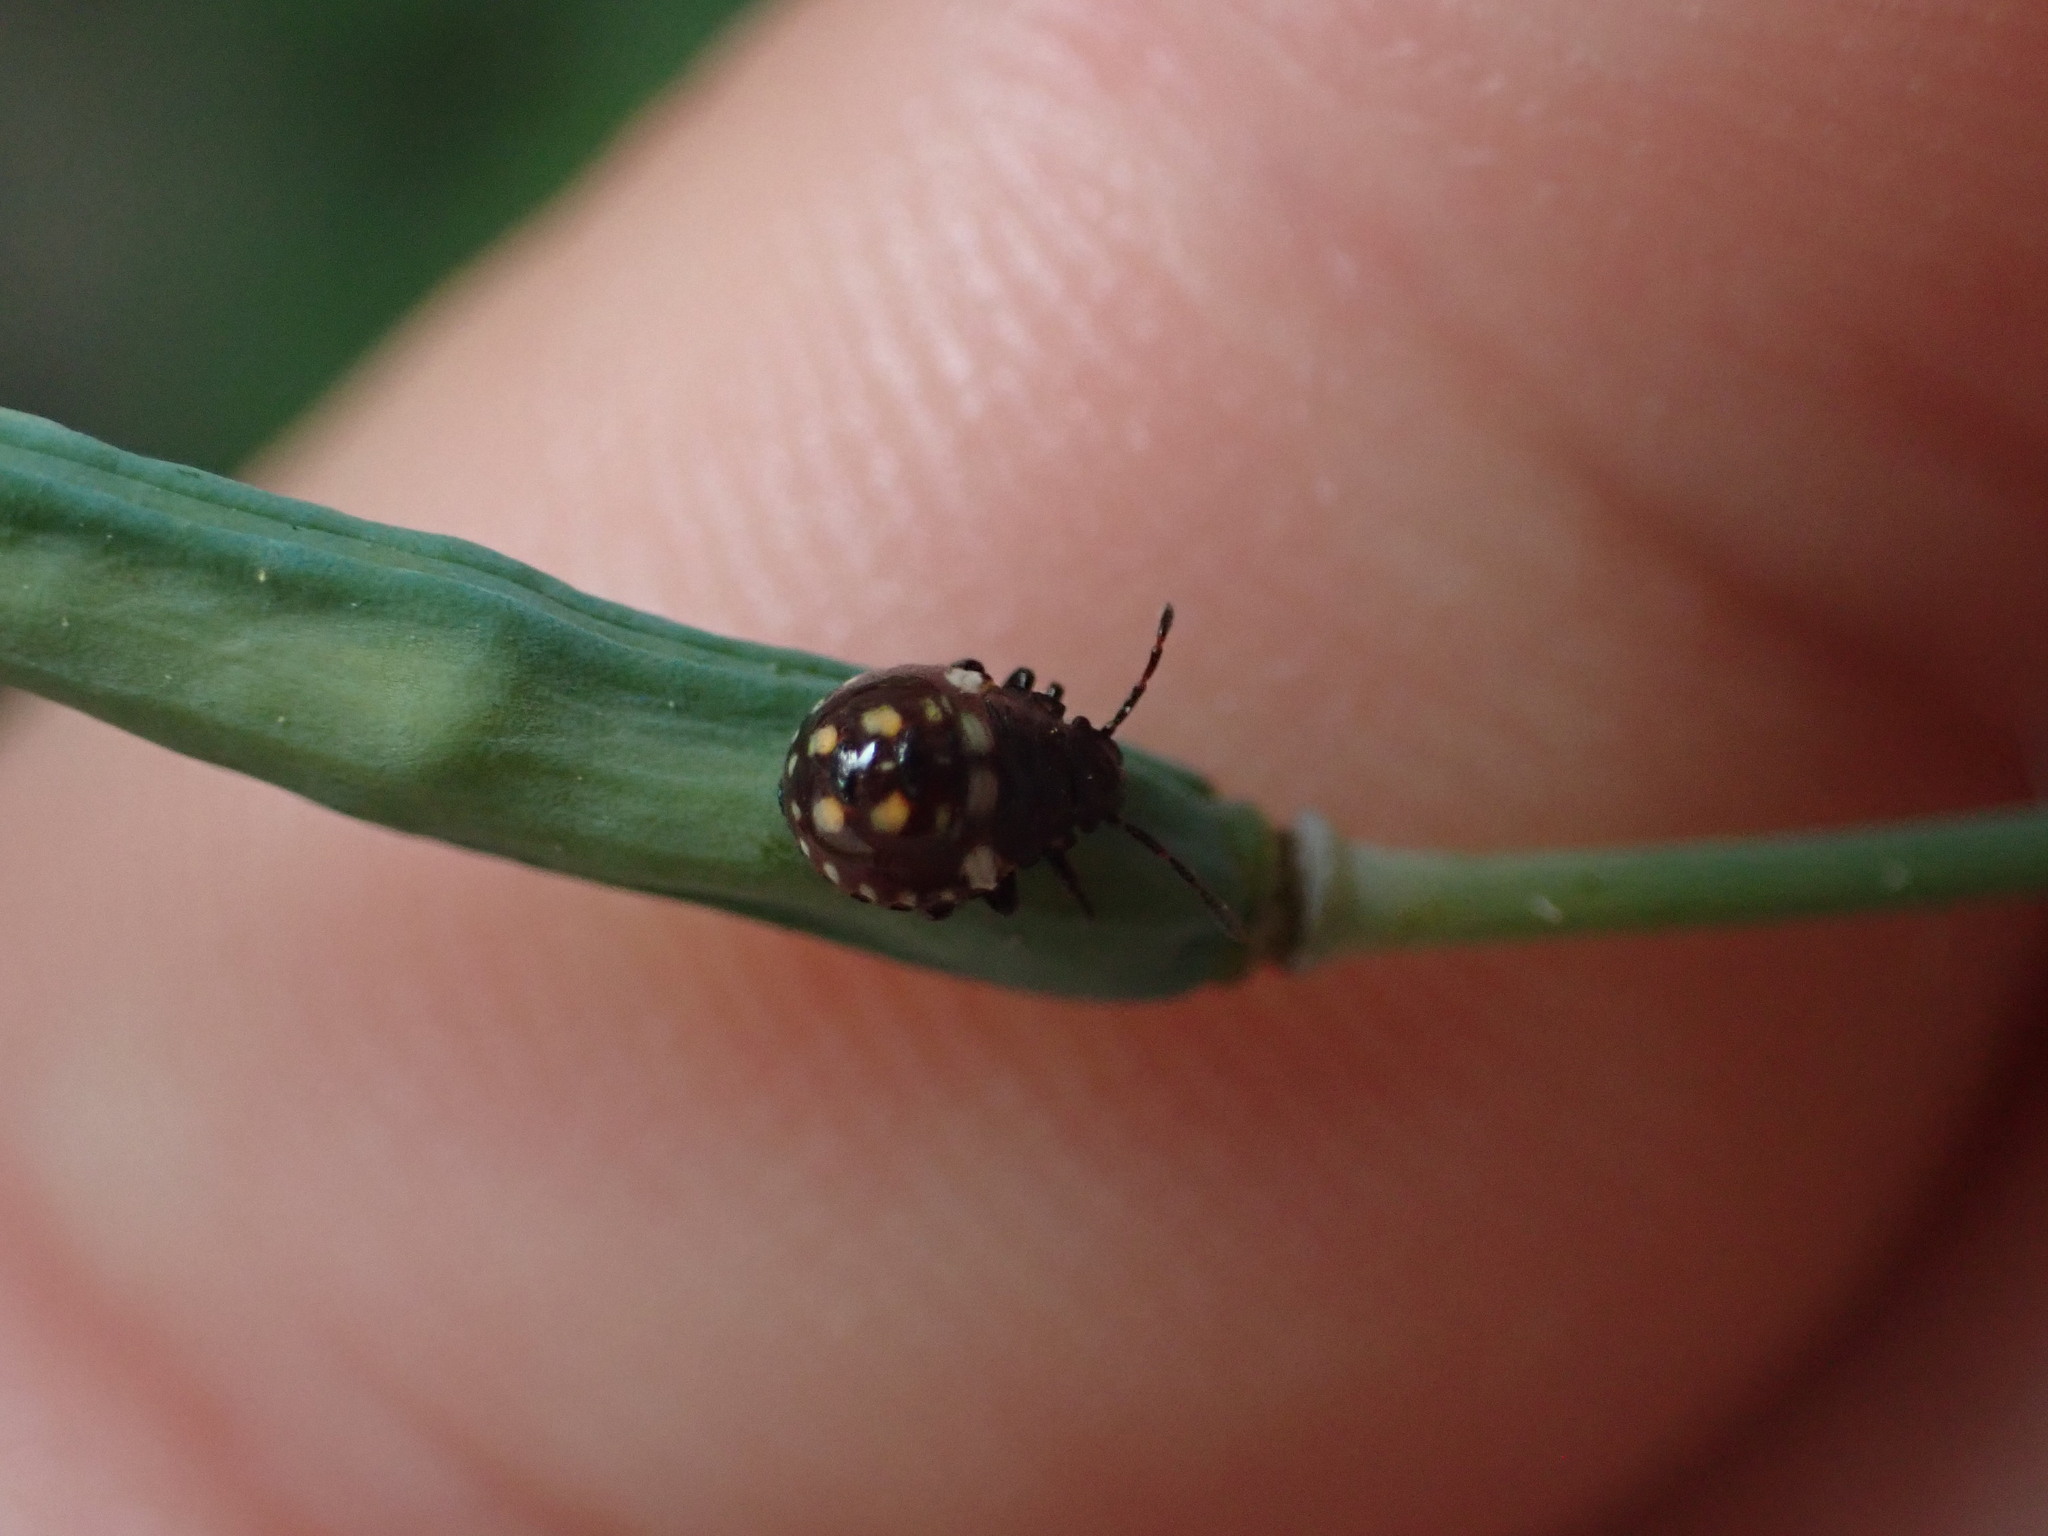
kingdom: Animalia
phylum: Arthropoda
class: Insecta
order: Hemiptera
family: Pentatomidae
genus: Nezara
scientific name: Nezara viridula
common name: Southern green stink bug
